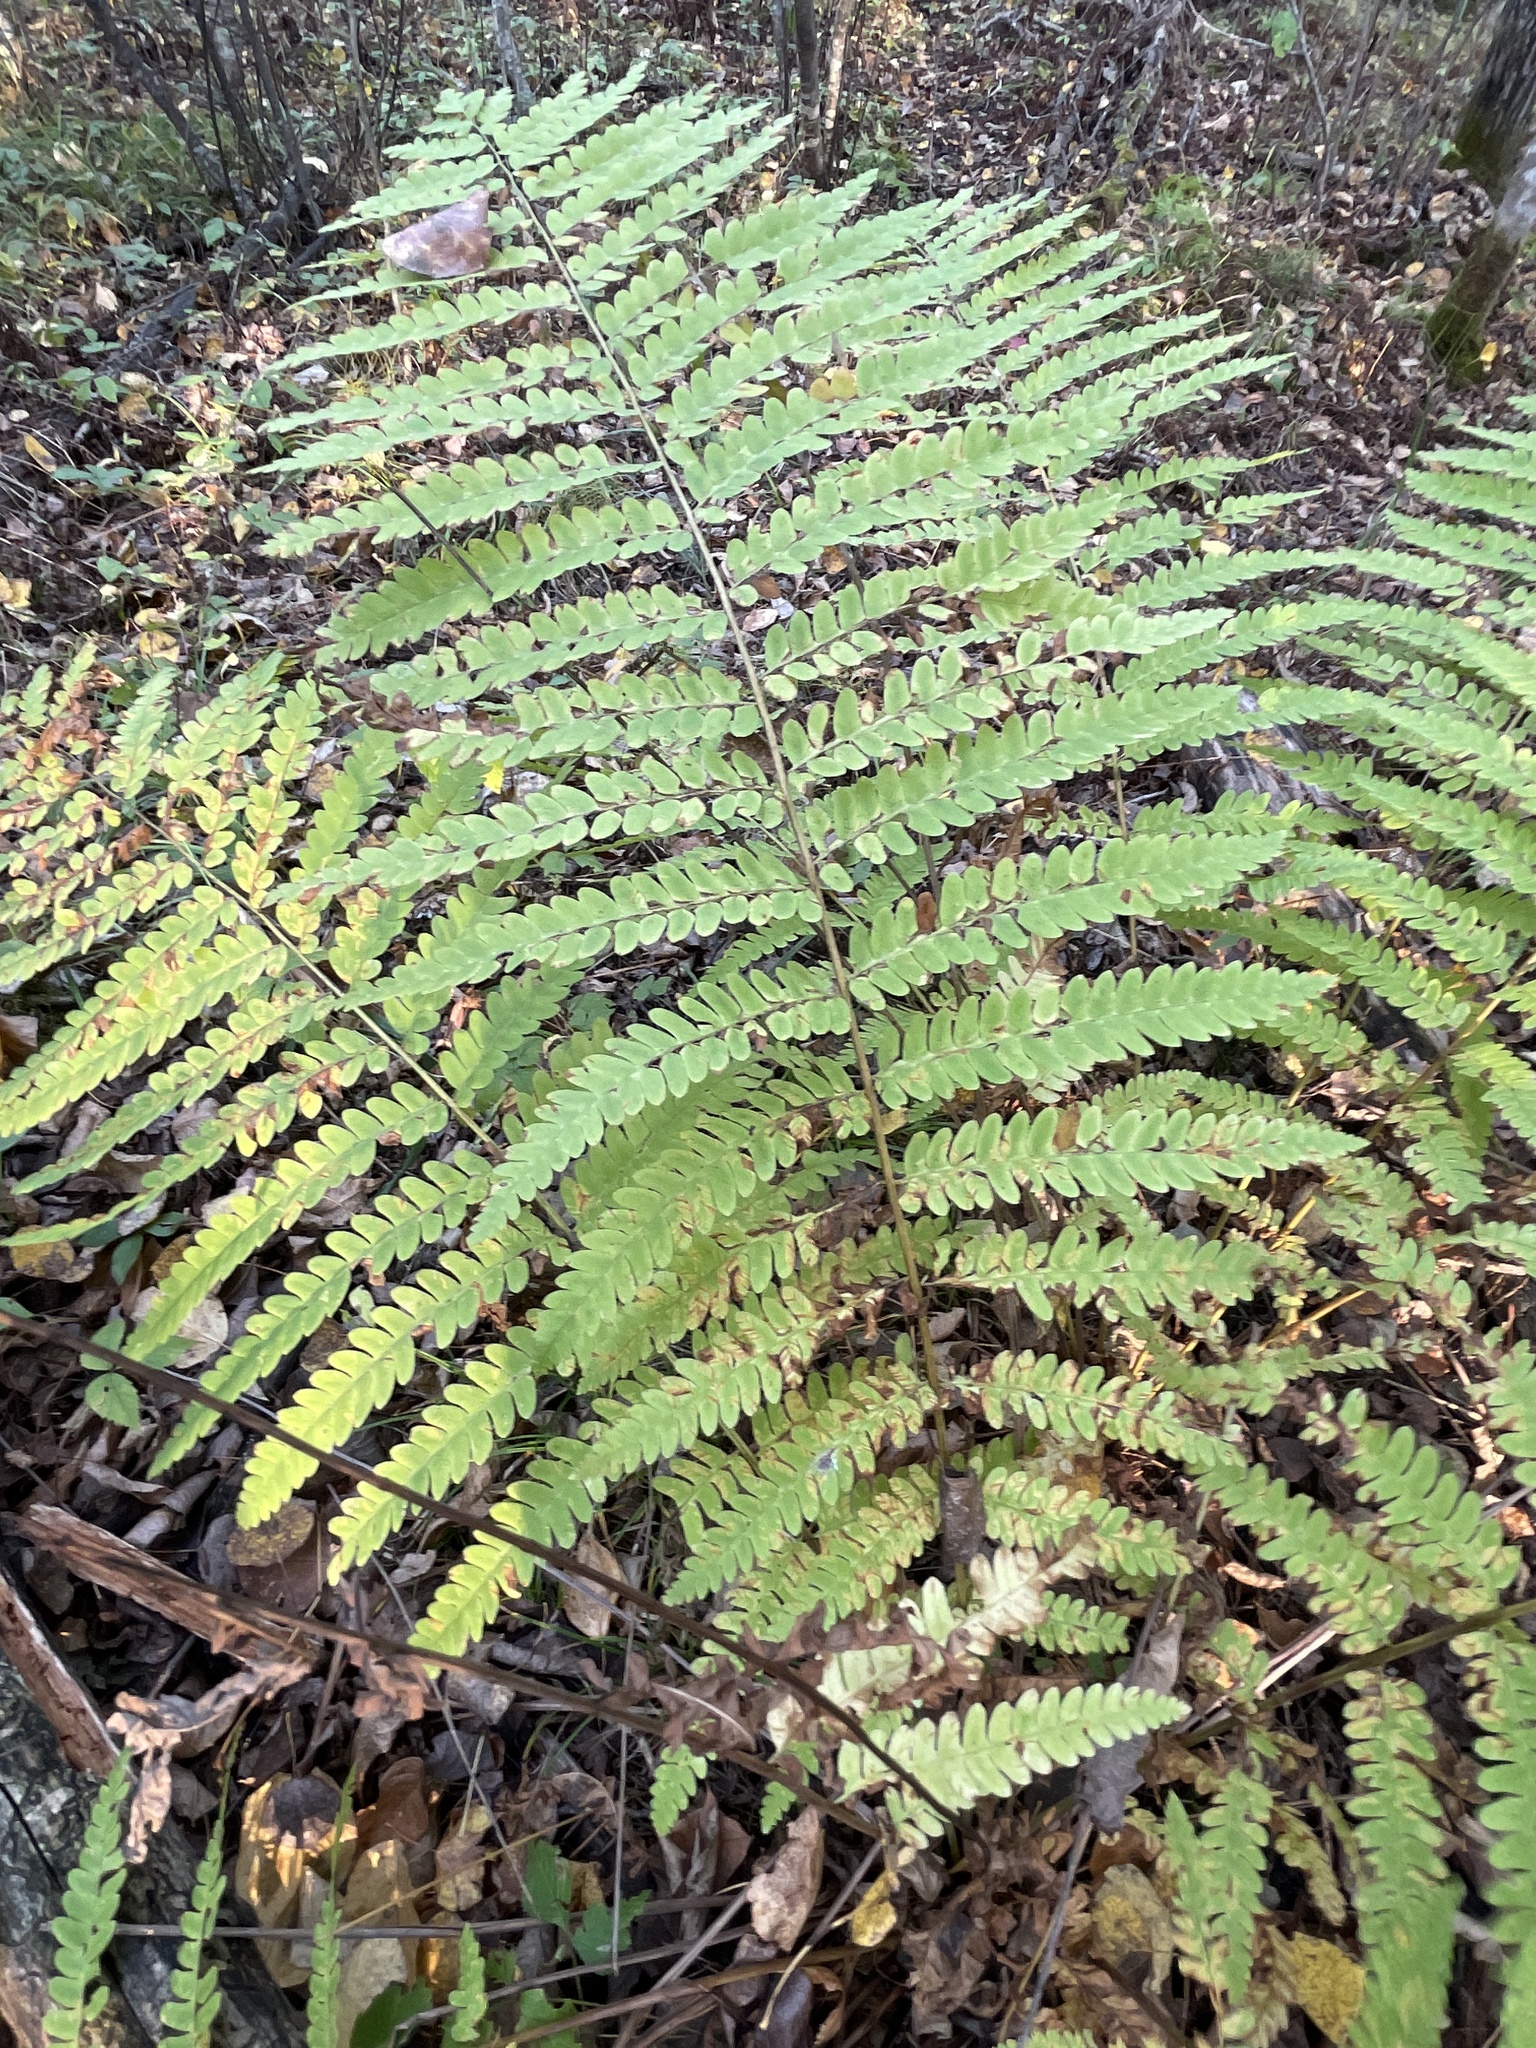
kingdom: Plantae
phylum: Tracheophyta
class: Polypodiopsida
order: Osmundales
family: Osmundaceae
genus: Claytosmunda
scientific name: Claytosmunda claytoniana
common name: Clayton's fern
